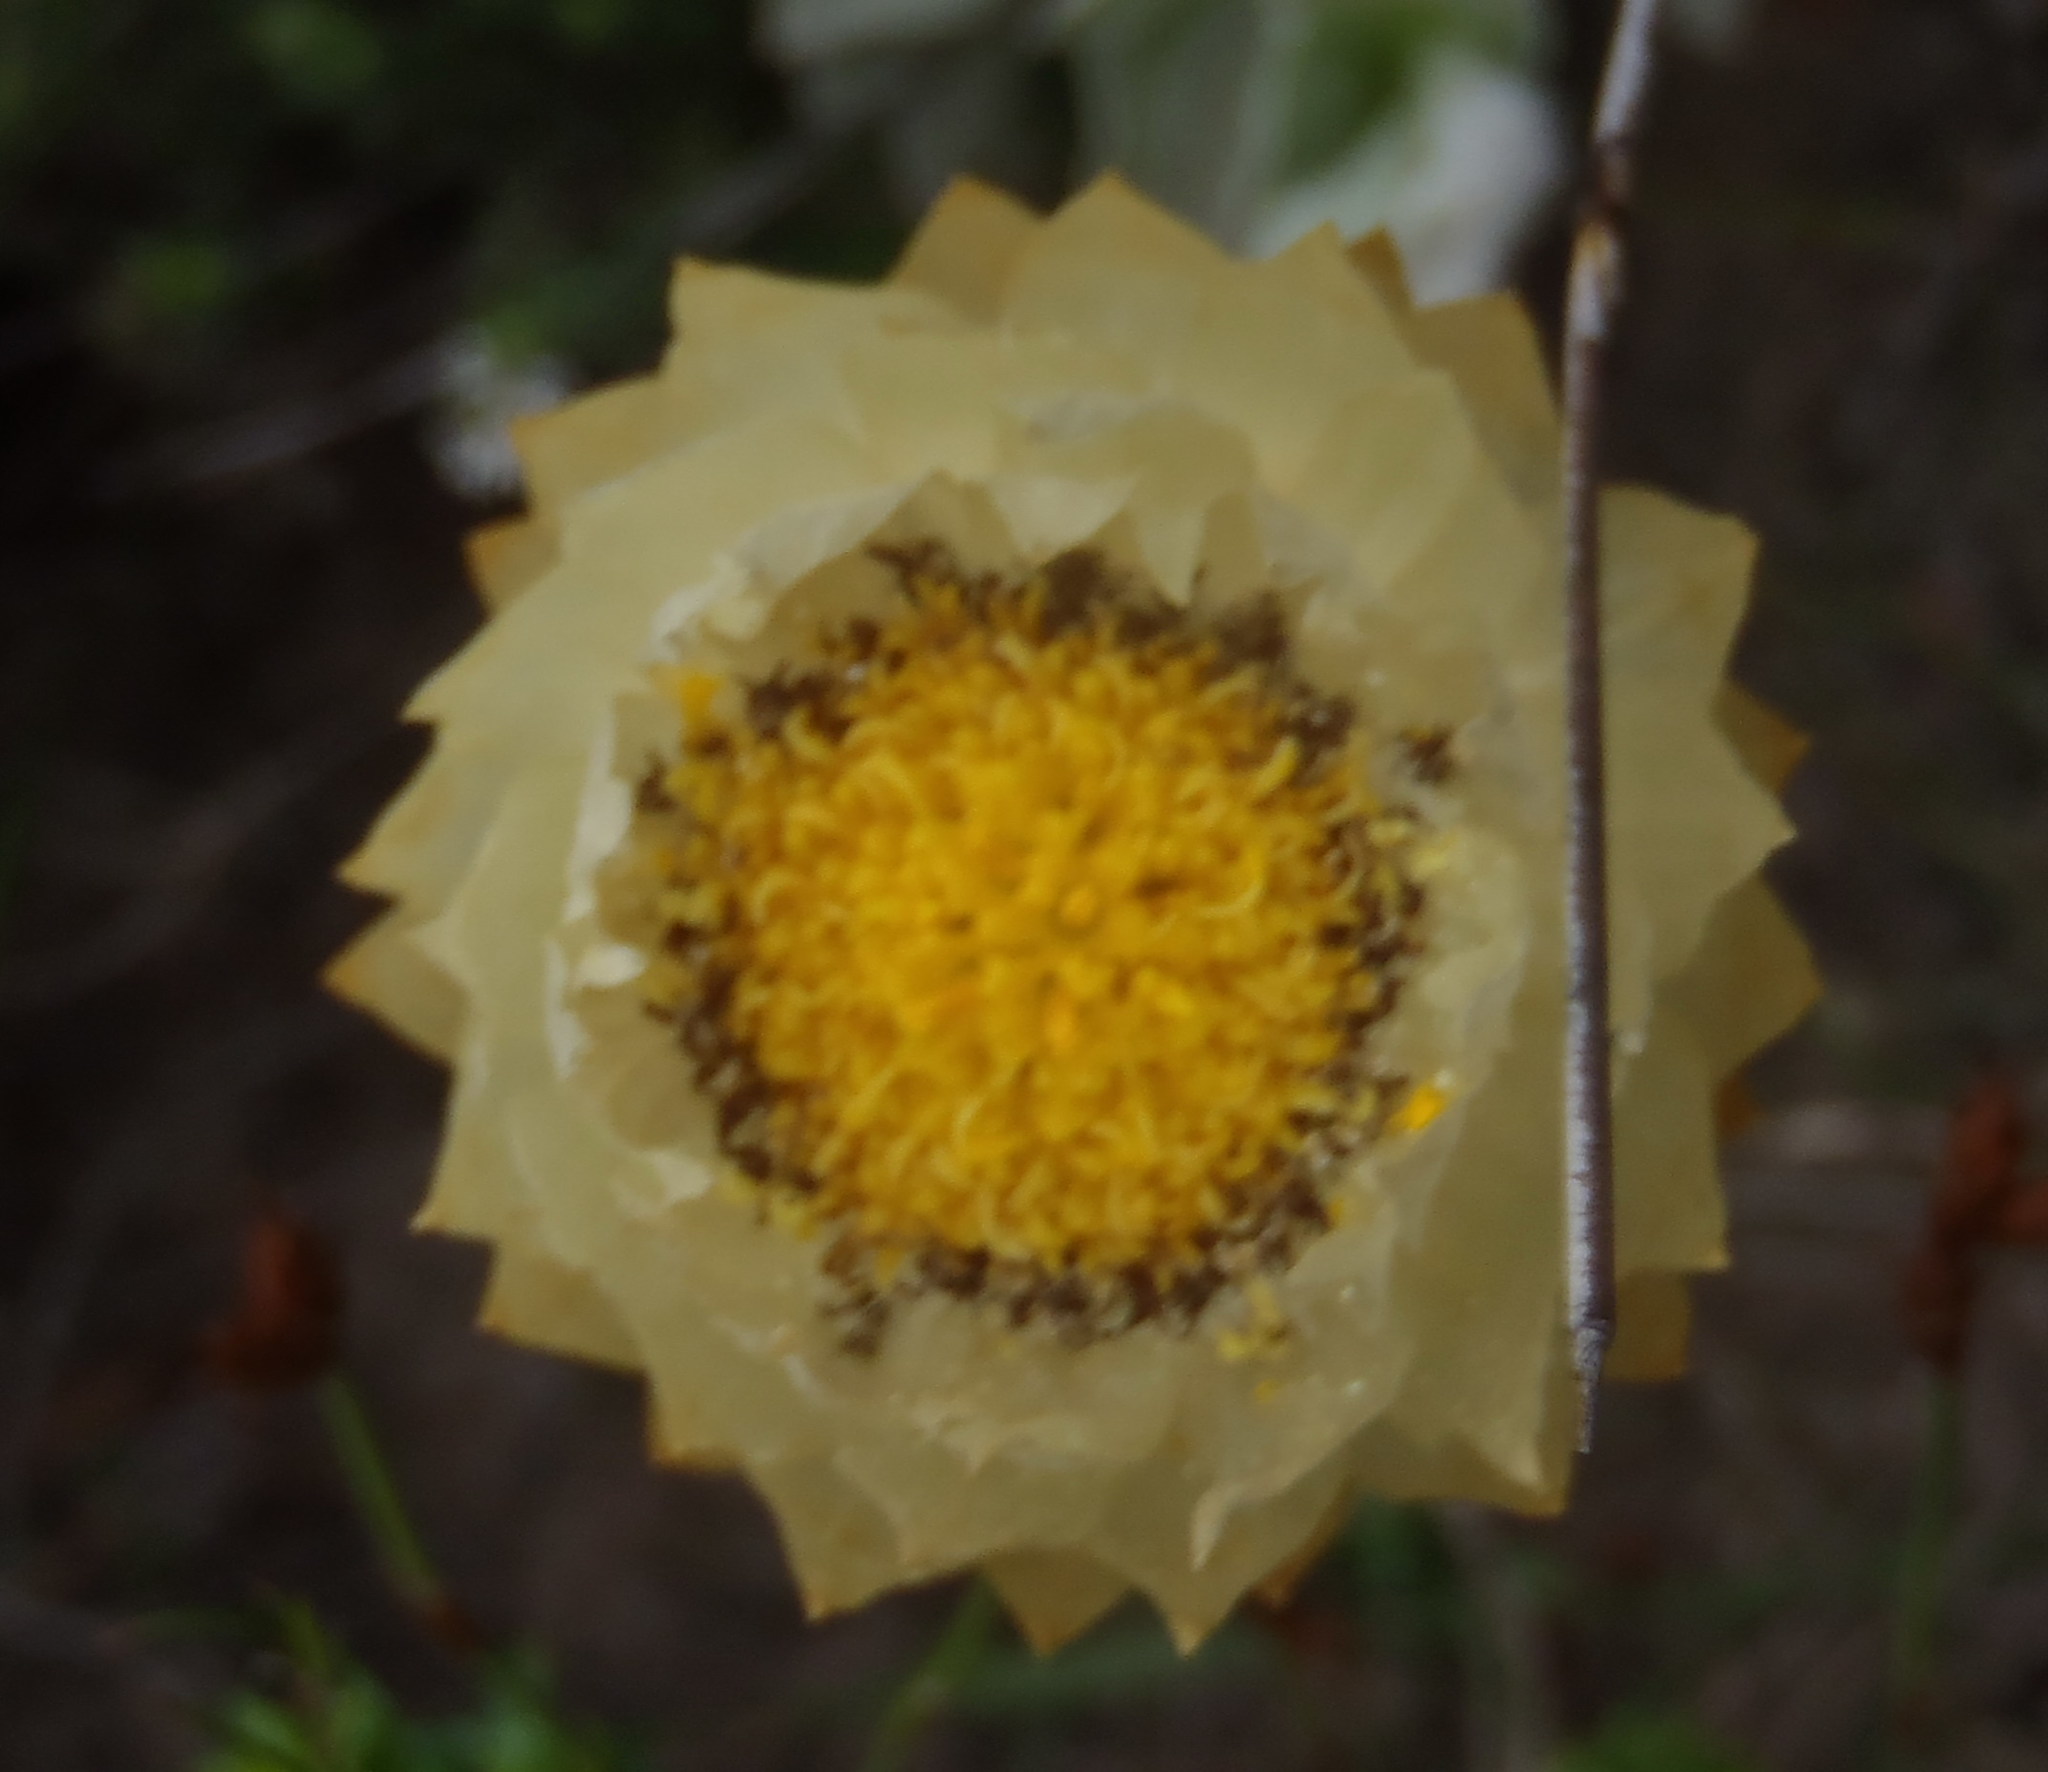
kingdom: Plantae
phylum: Tracheophyta
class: Magnoliopsida
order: Asterales
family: Asteraceae
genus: Syncarpha
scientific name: Syncarpha speciosissima
